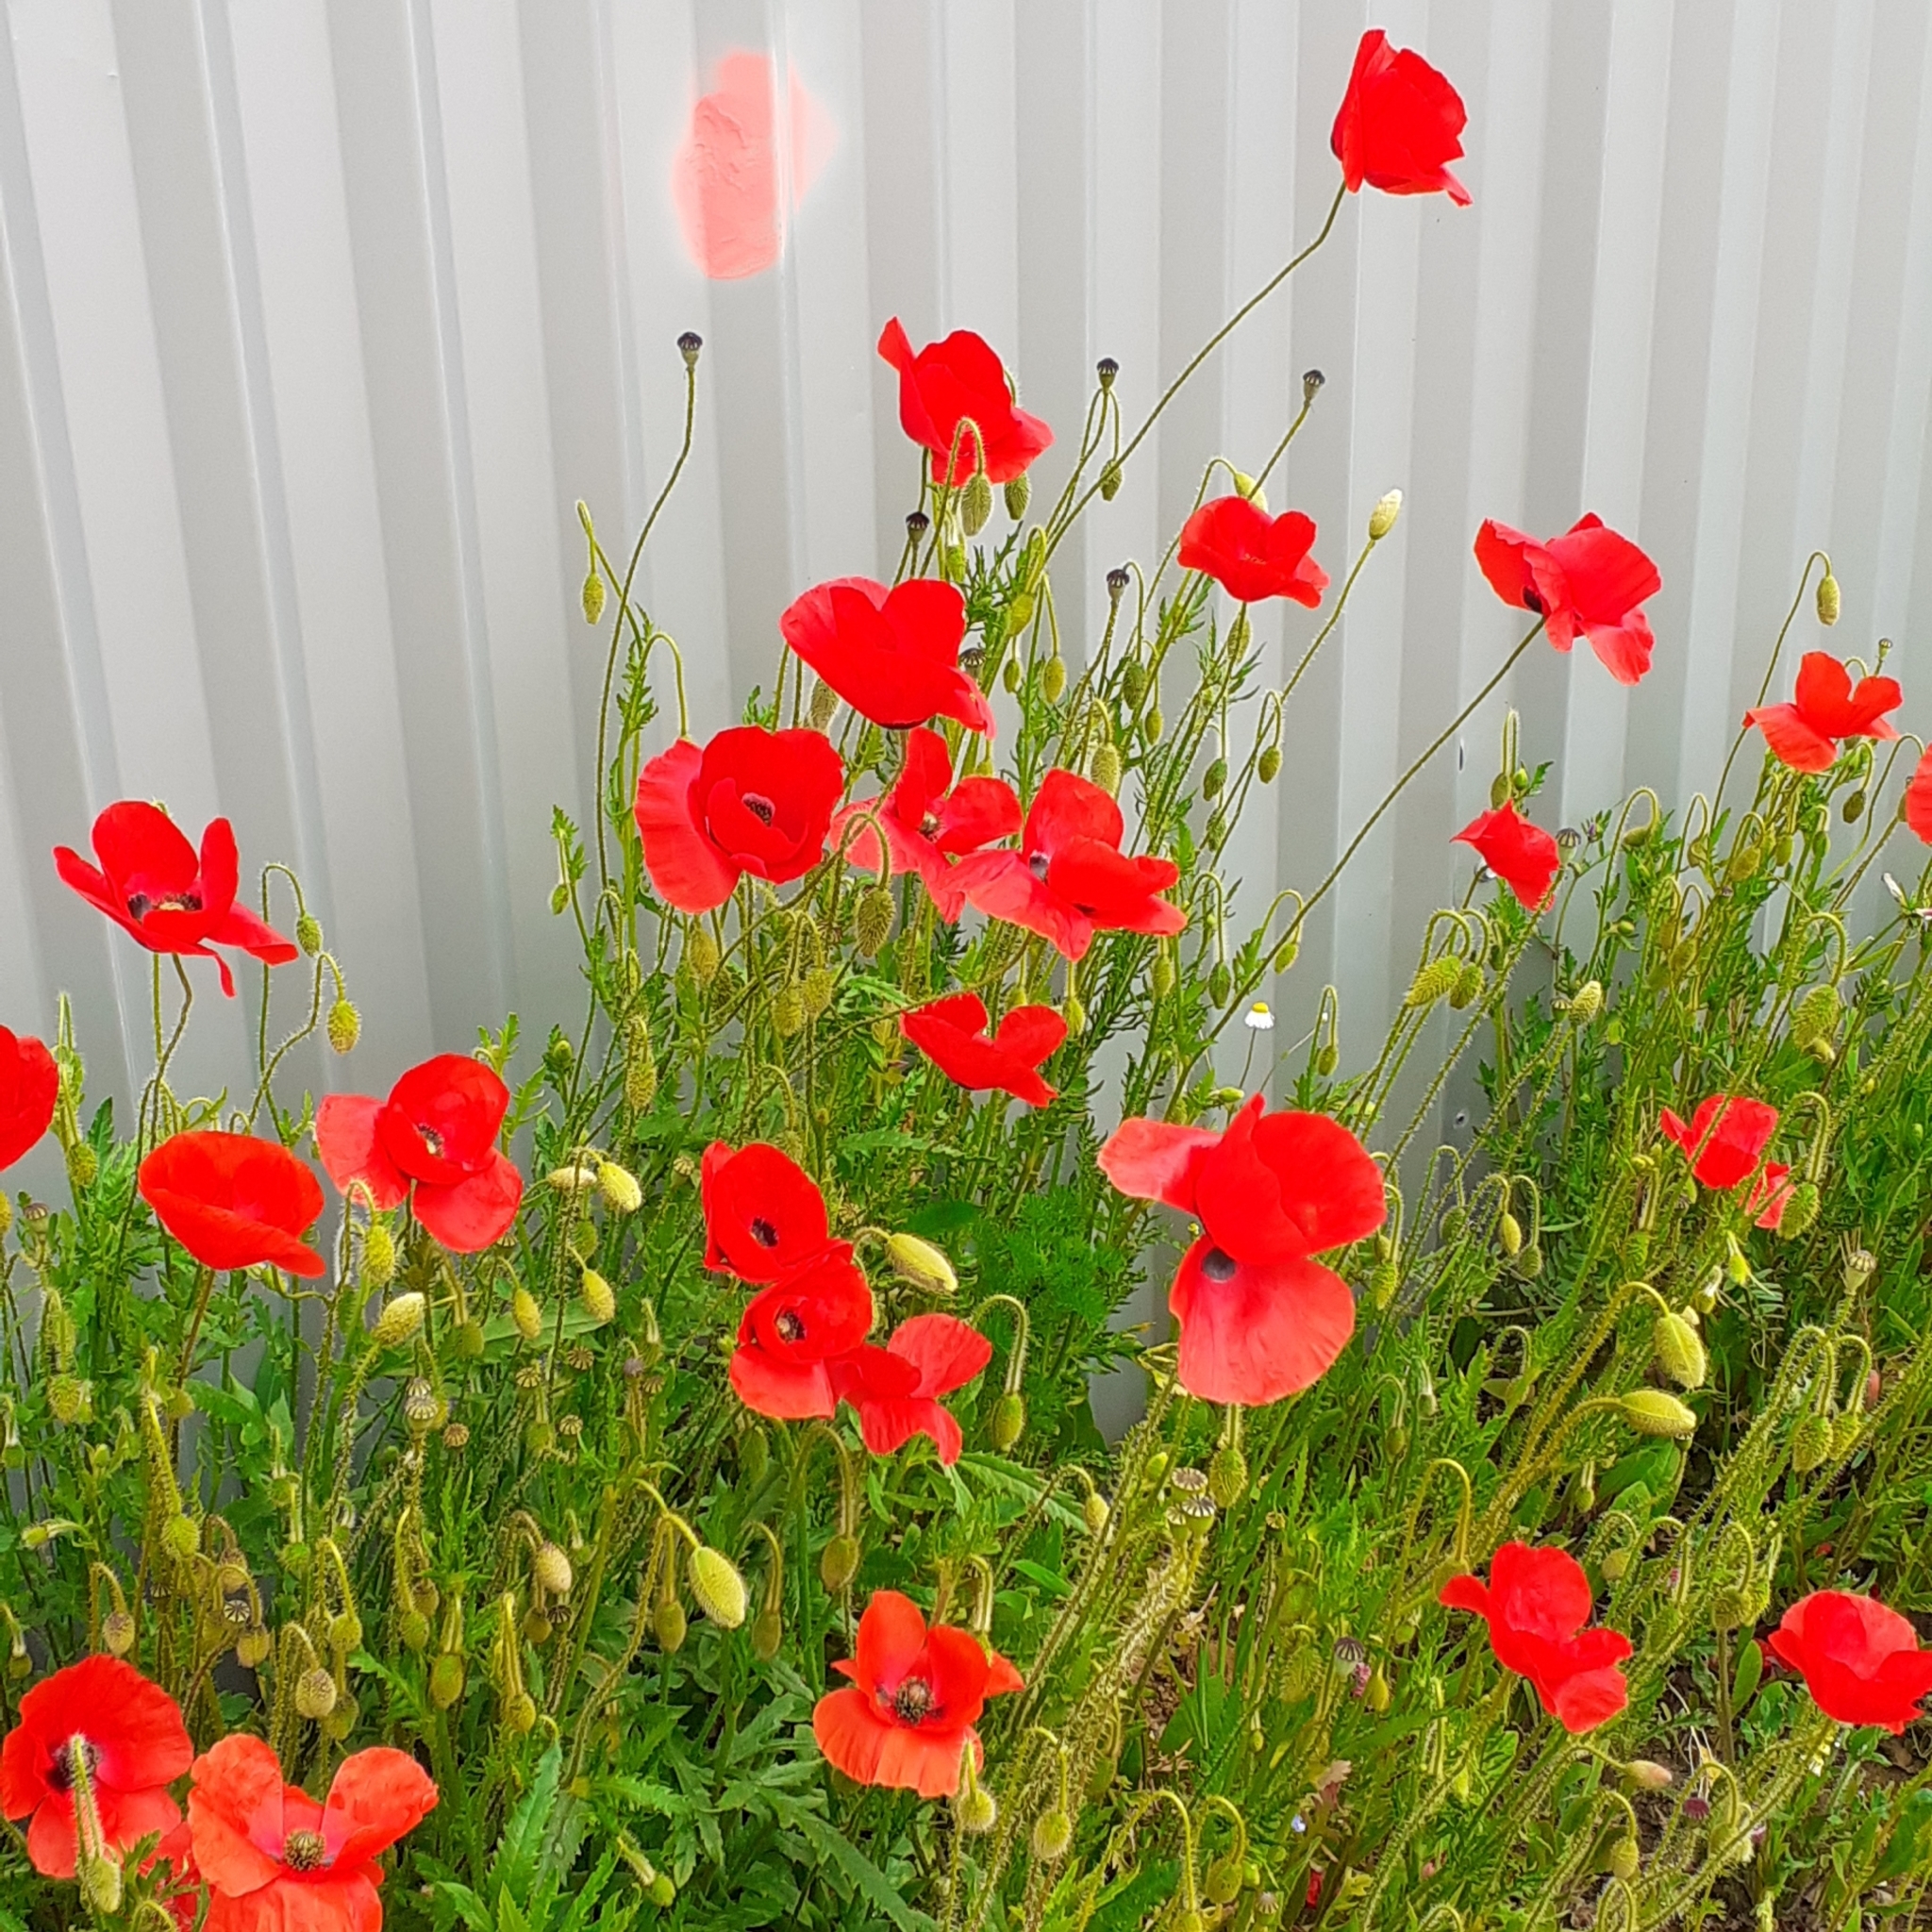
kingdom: Plantae
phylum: Tracheophyta
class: Magnoliopsida
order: Ranunculales
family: Papaveraceae
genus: Papaver
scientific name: Papaver rhoeas
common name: Corn poppy
